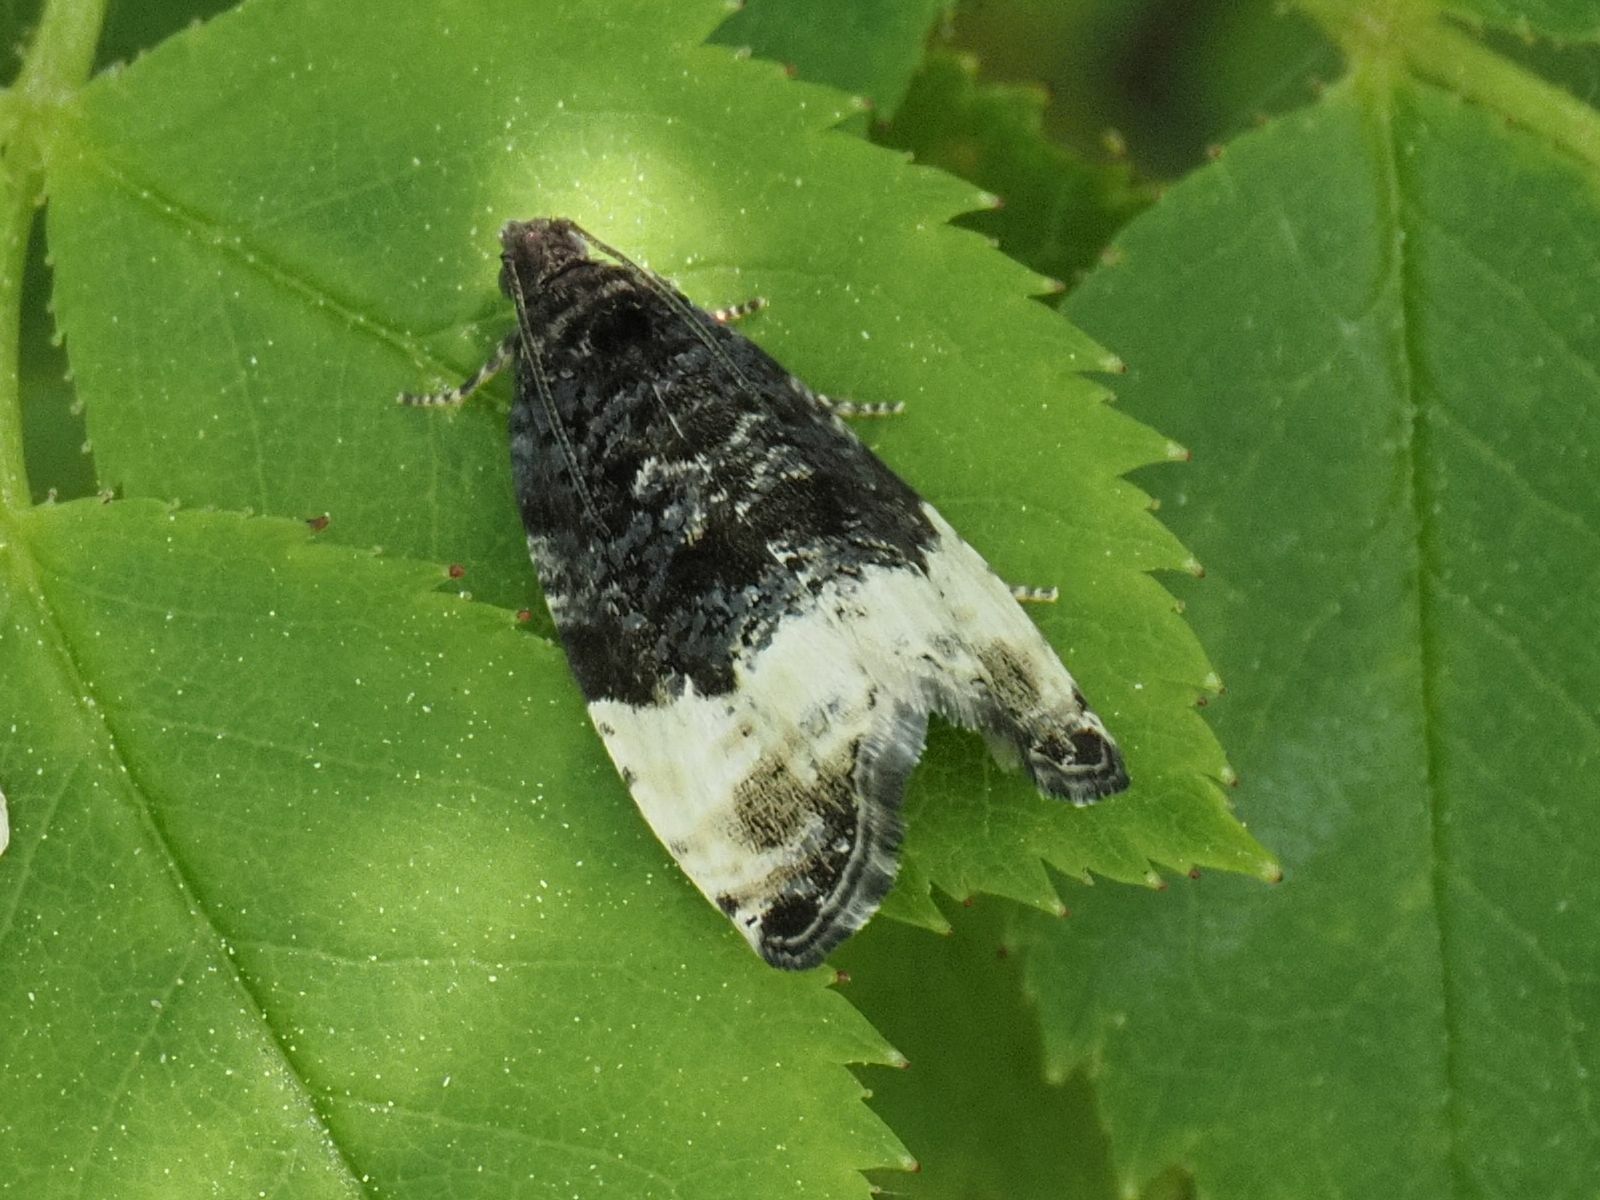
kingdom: Animalia
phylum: Arthropoda
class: Insecta
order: Lepidoptera
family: Tortricidae
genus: Hedya
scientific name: Hedya pruniana
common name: Plum tortrix
